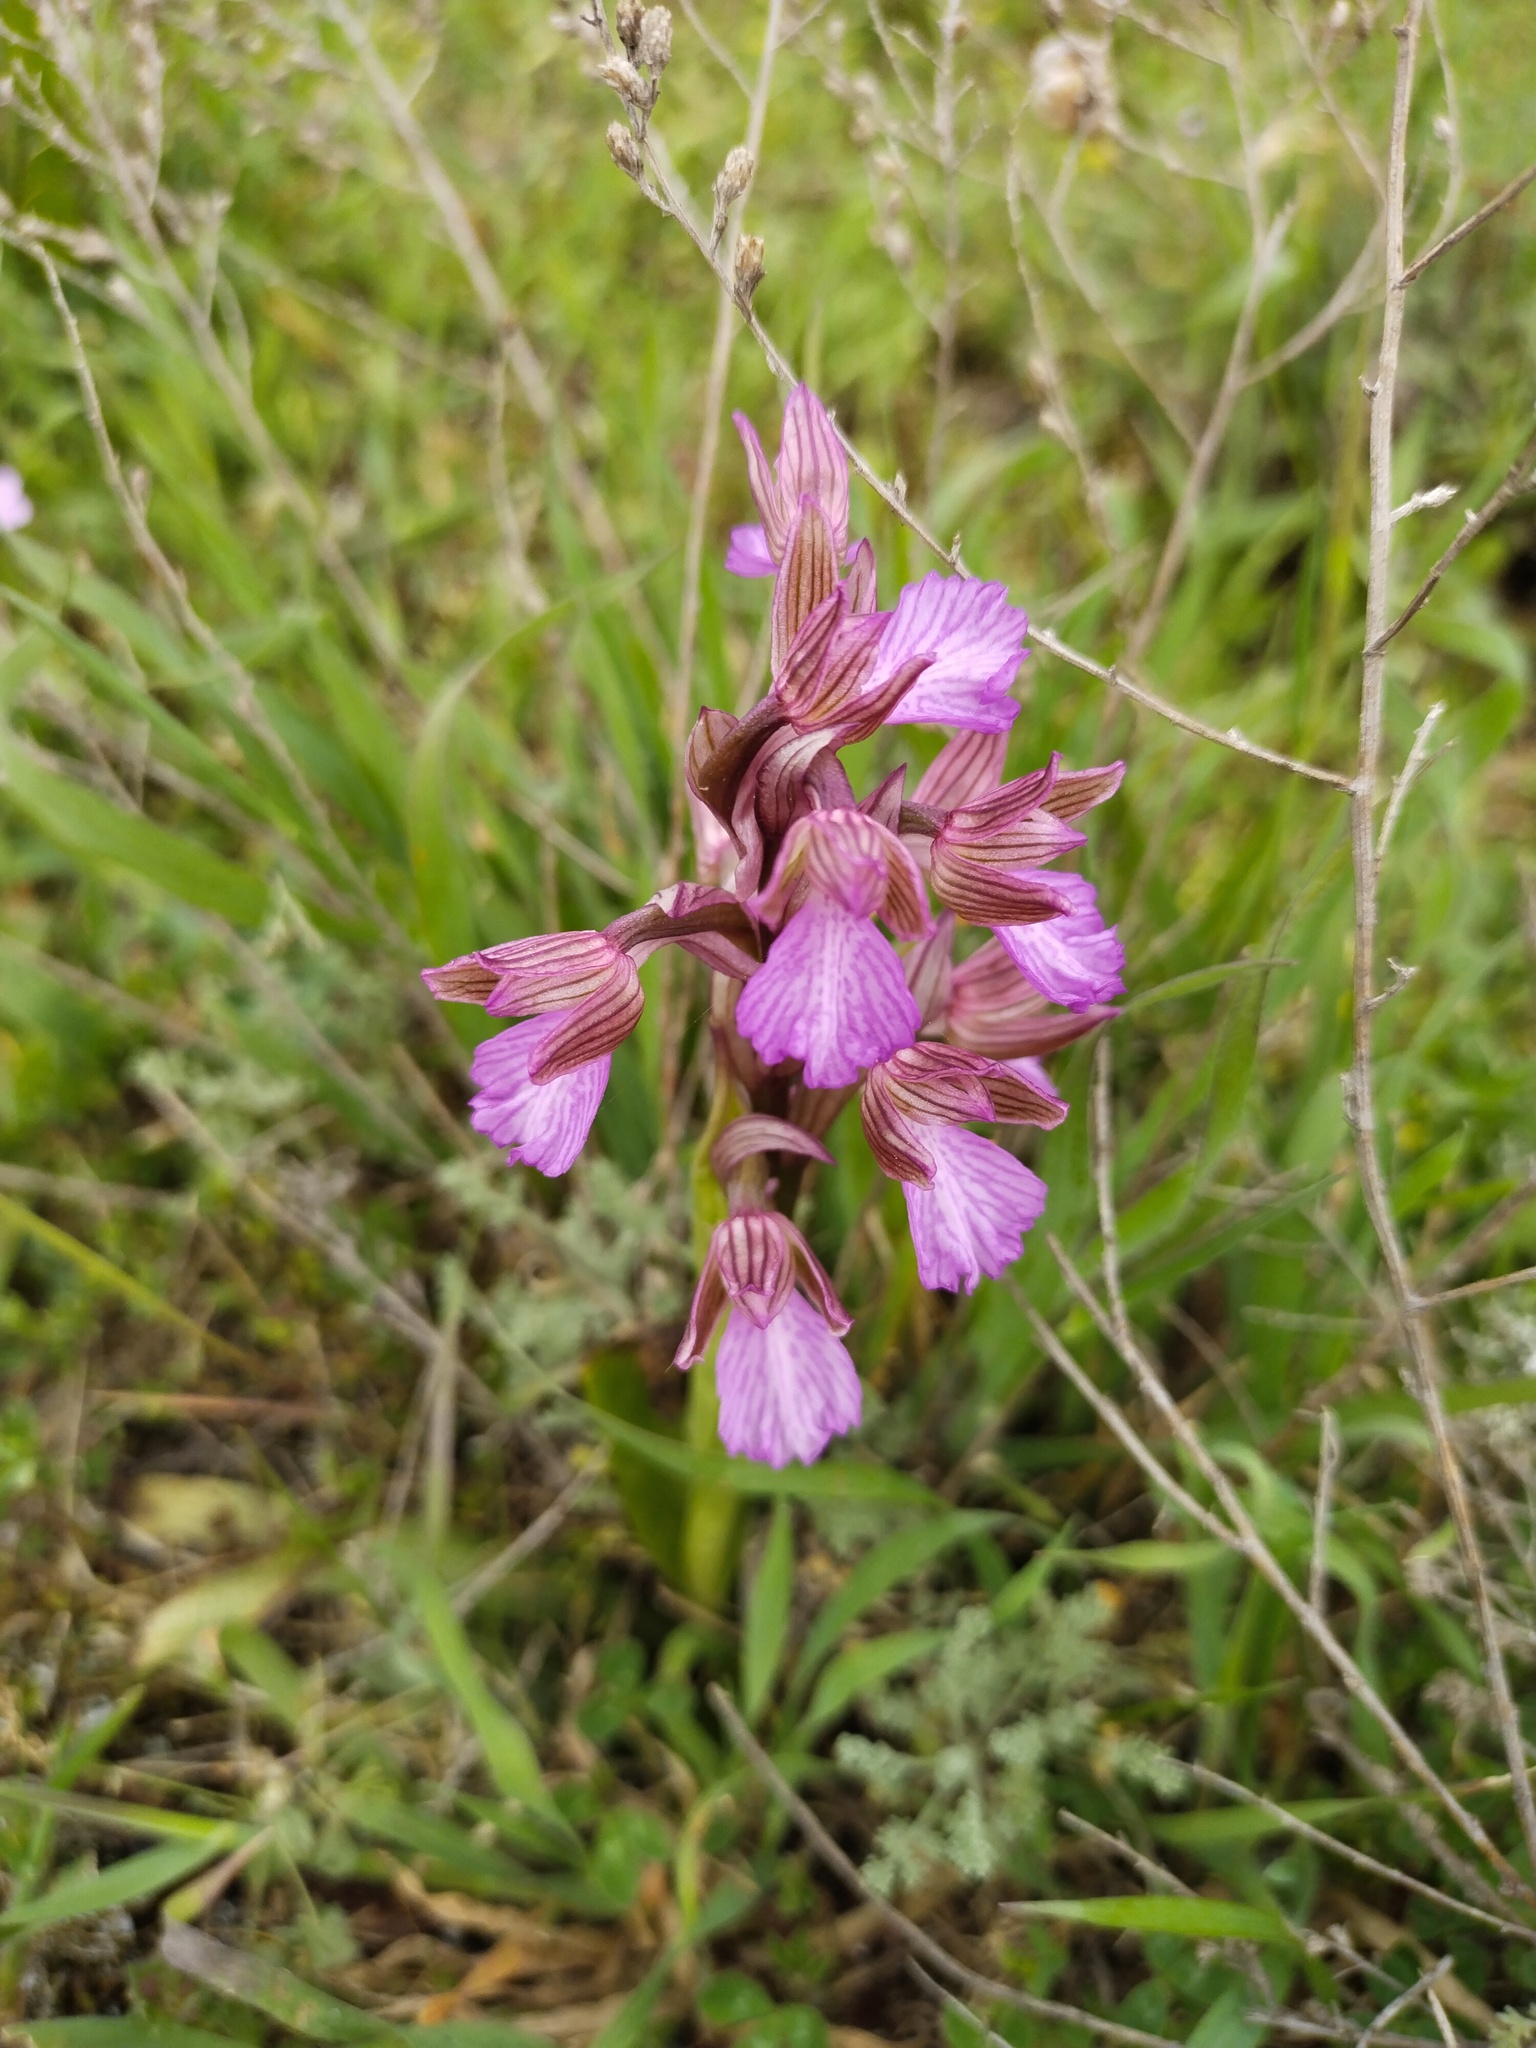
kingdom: Plantae
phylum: Tracheophyta
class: Liliopsida
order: Asparagales
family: Orchidaceae
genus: Anacamptis
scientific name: Anacamptis papilionacea
